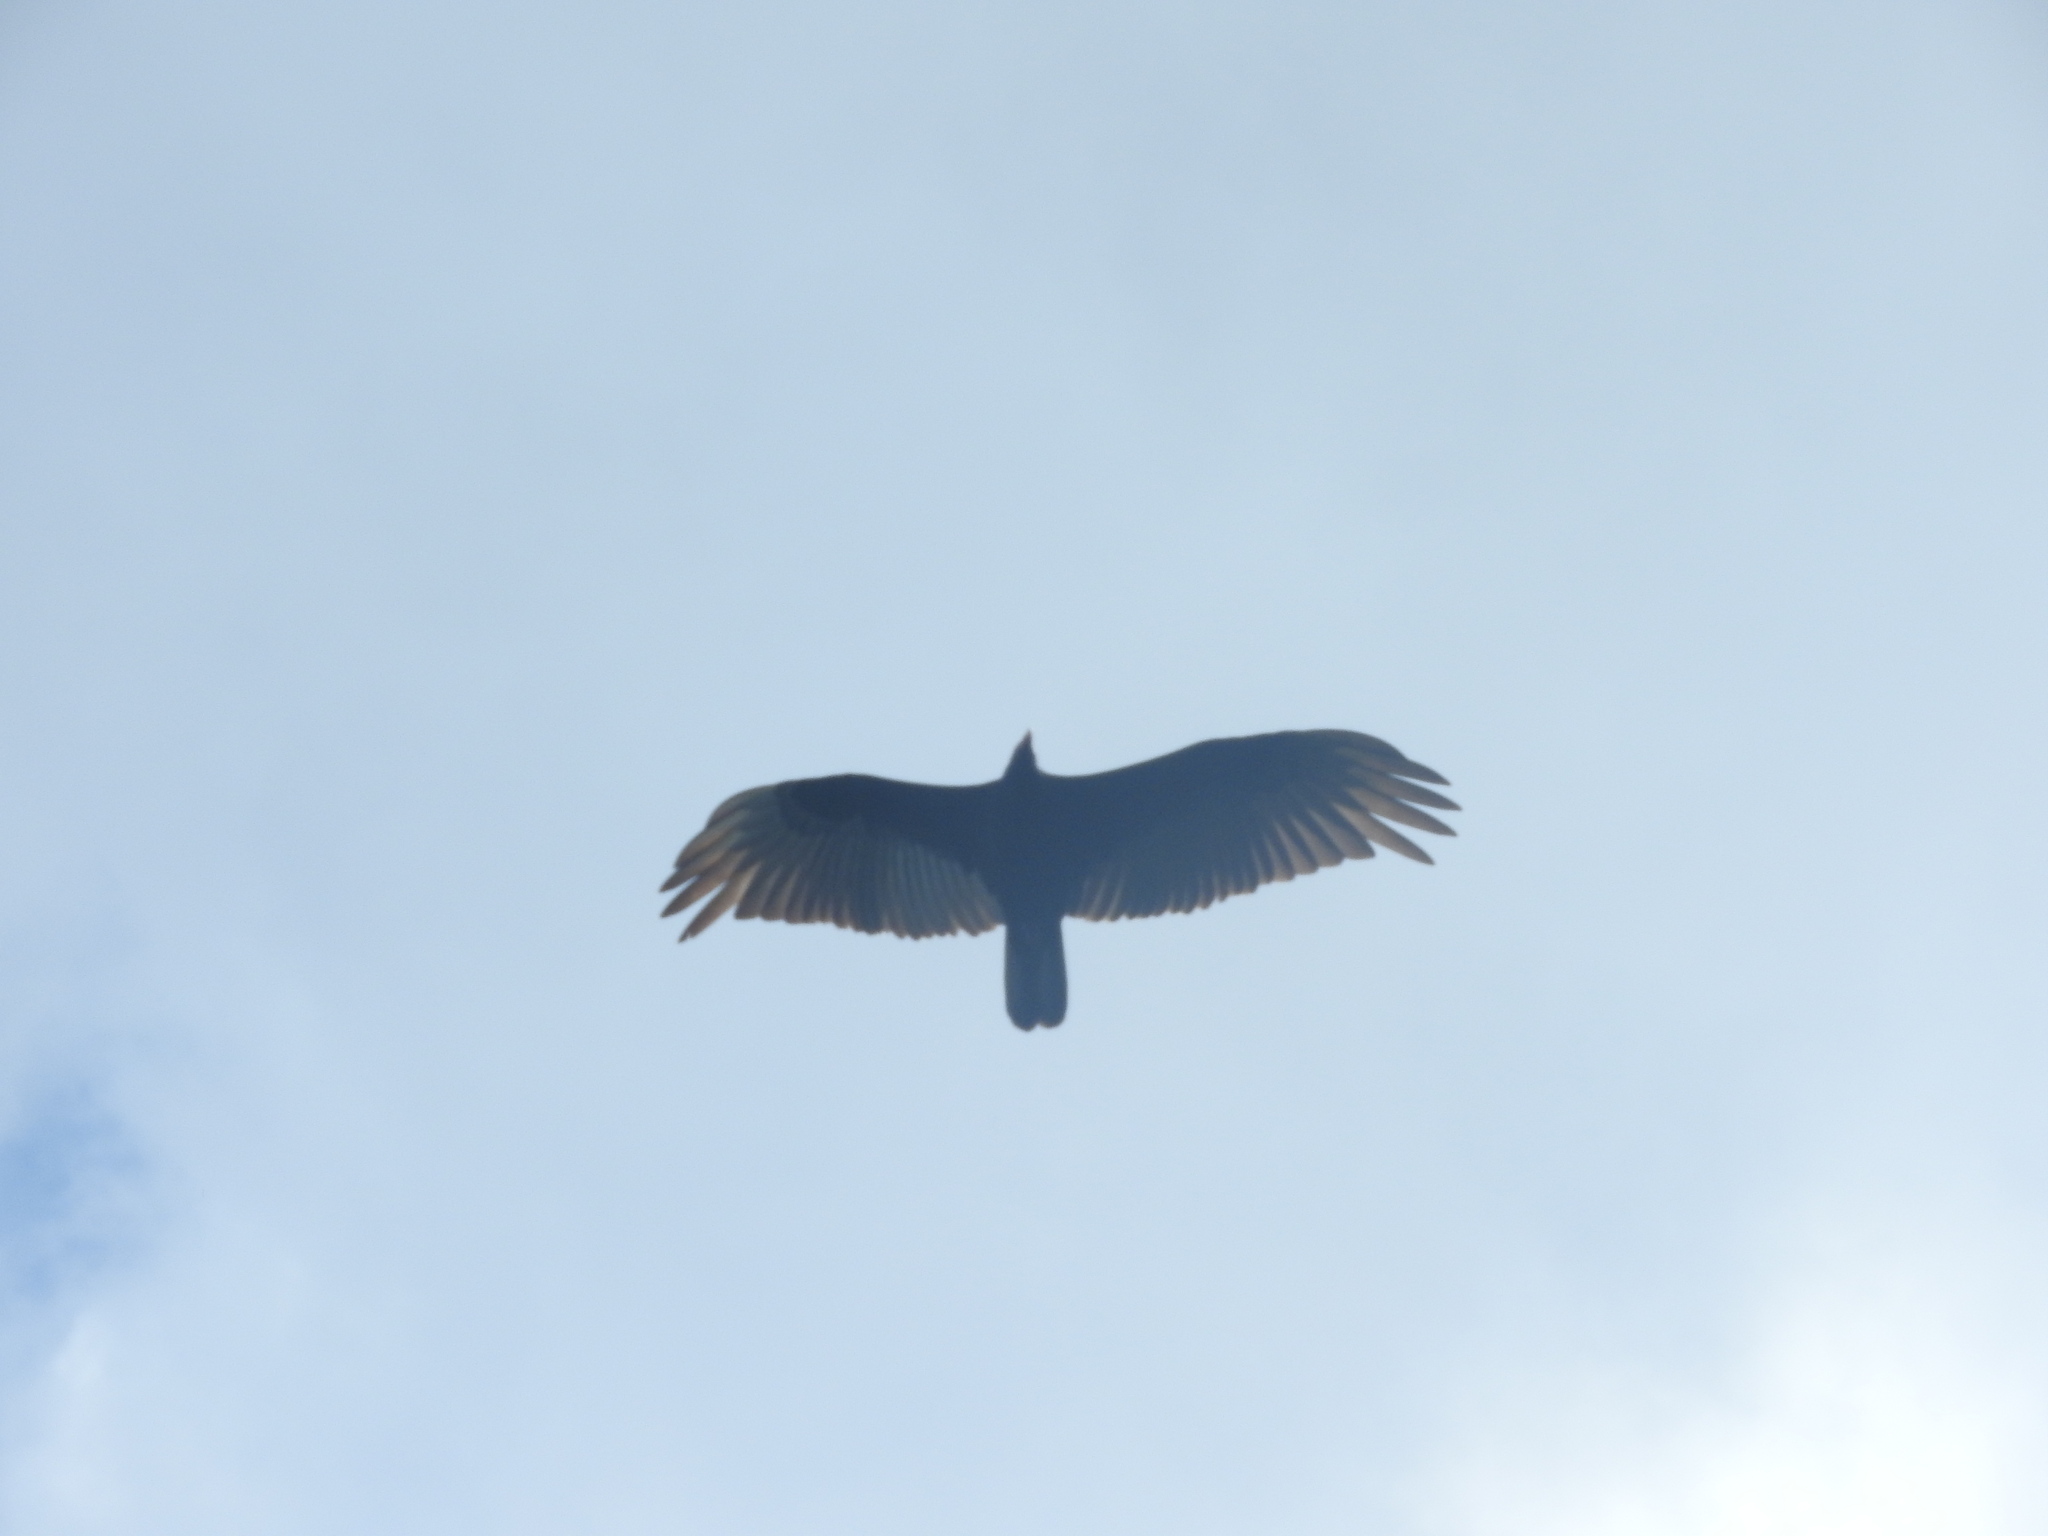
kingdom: Animalia
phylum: Chordata
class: Aves
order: Accipitriformes
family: Cathartidae
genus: Cathartes
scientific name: Cathartes aura
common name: Turkey vulture
